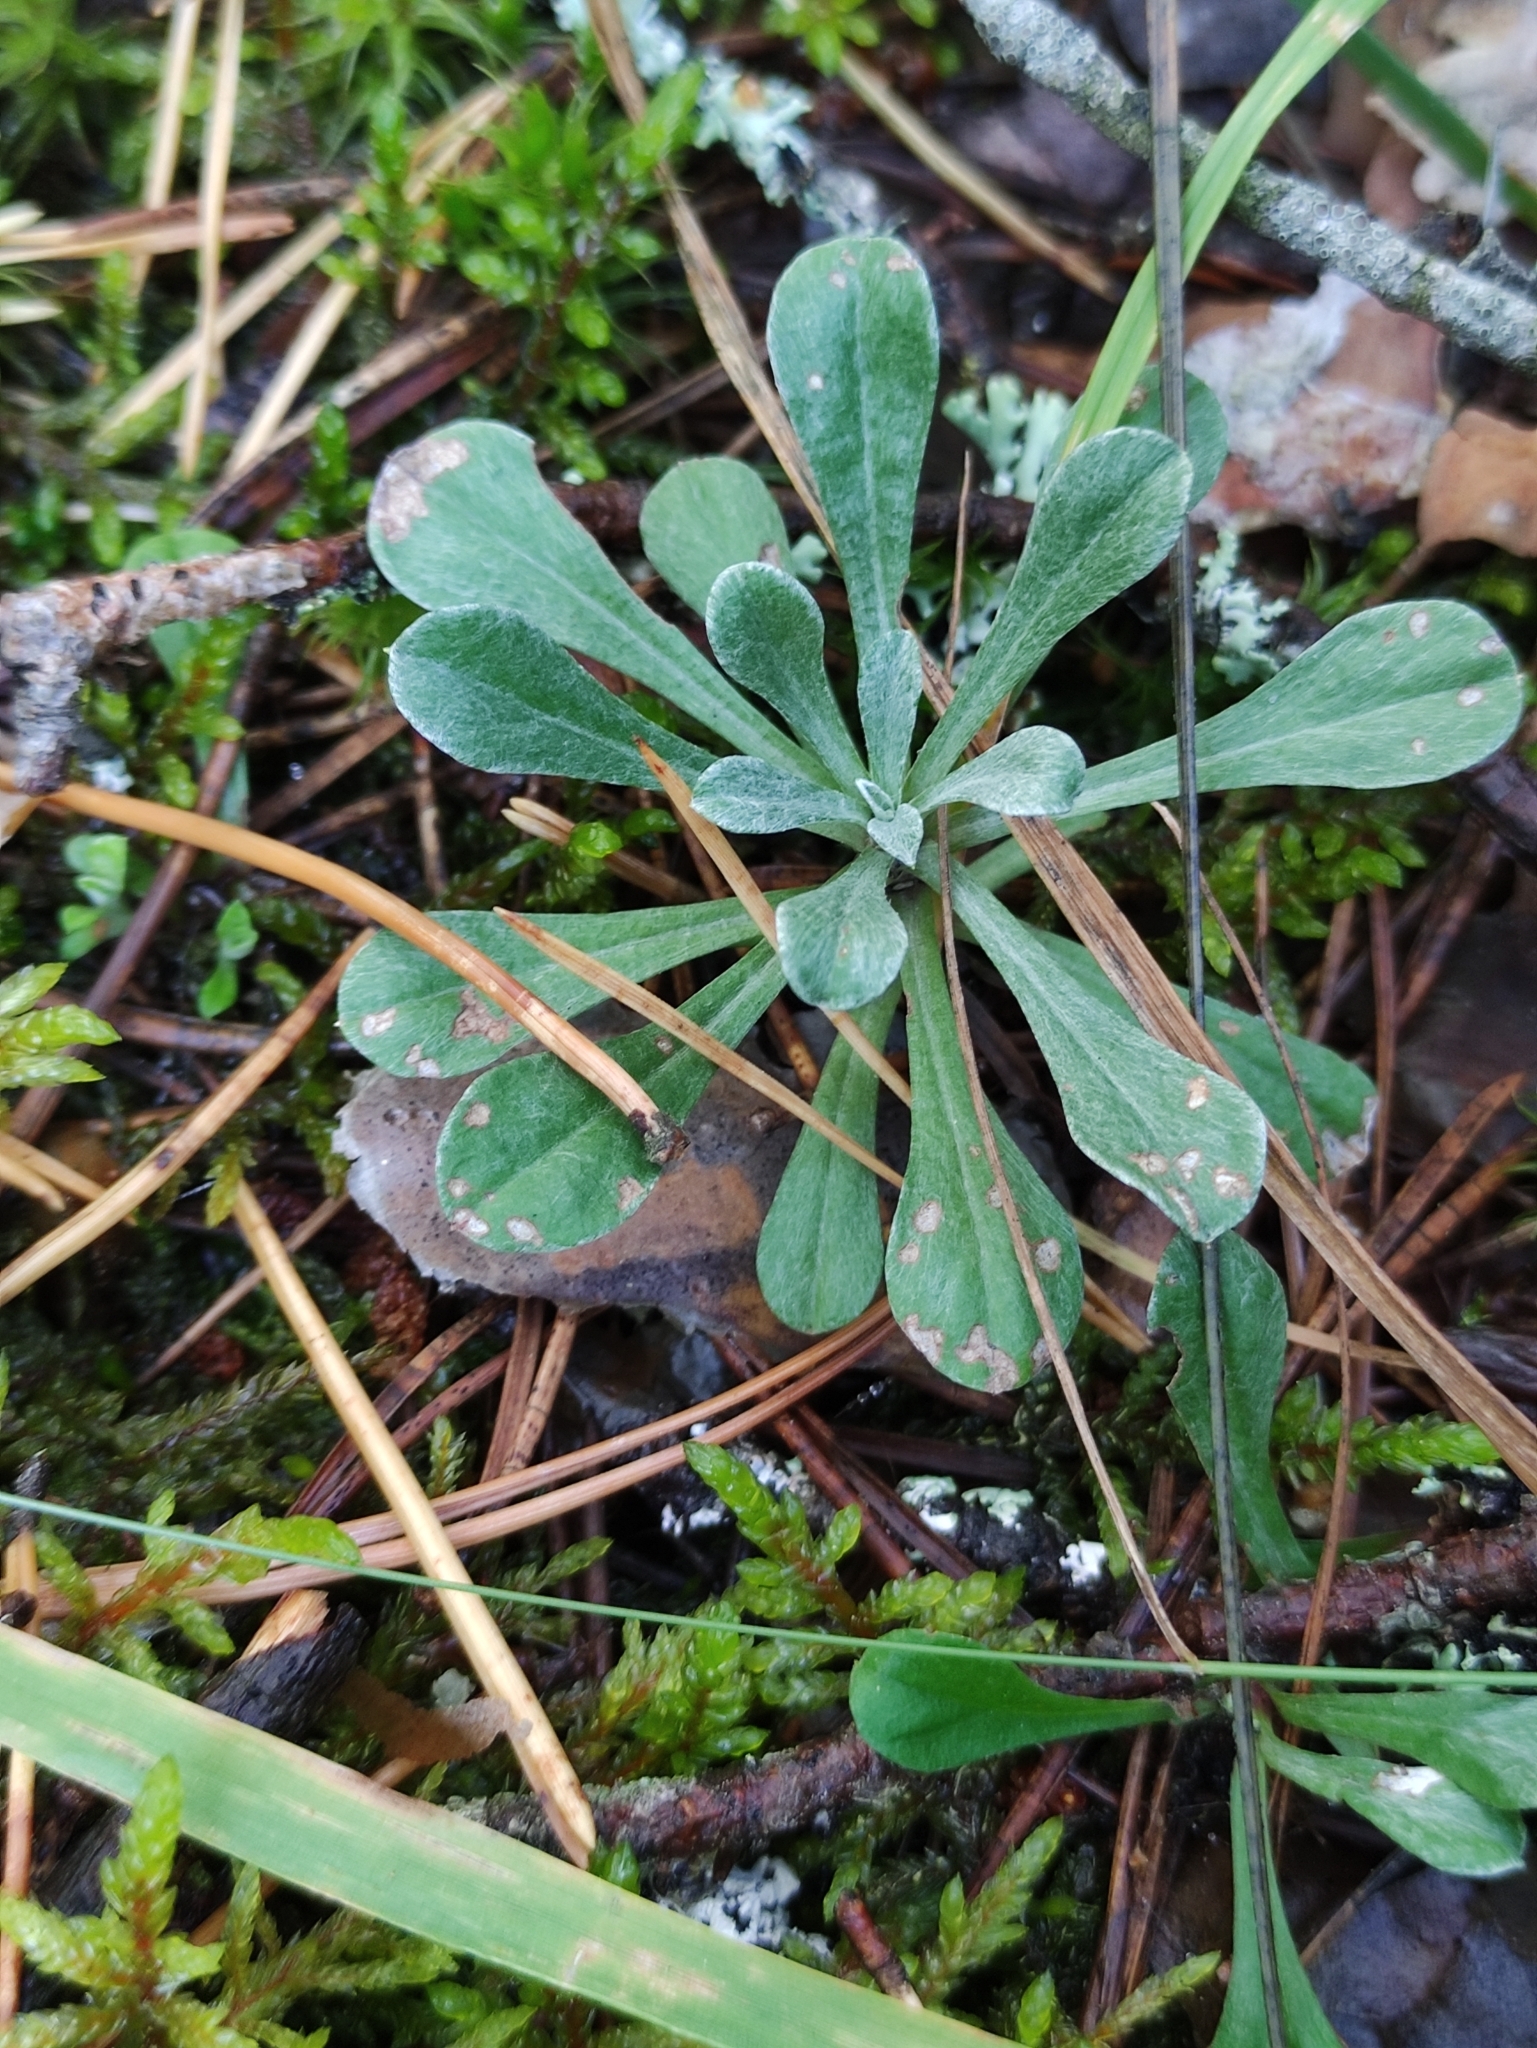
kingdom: Plantae
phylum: Tracheophyta
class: Magnoliopsida
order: Asterales
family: Asteraceae
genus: Antennaria
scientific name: Antennaria dioica
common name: Mountain everlasting
